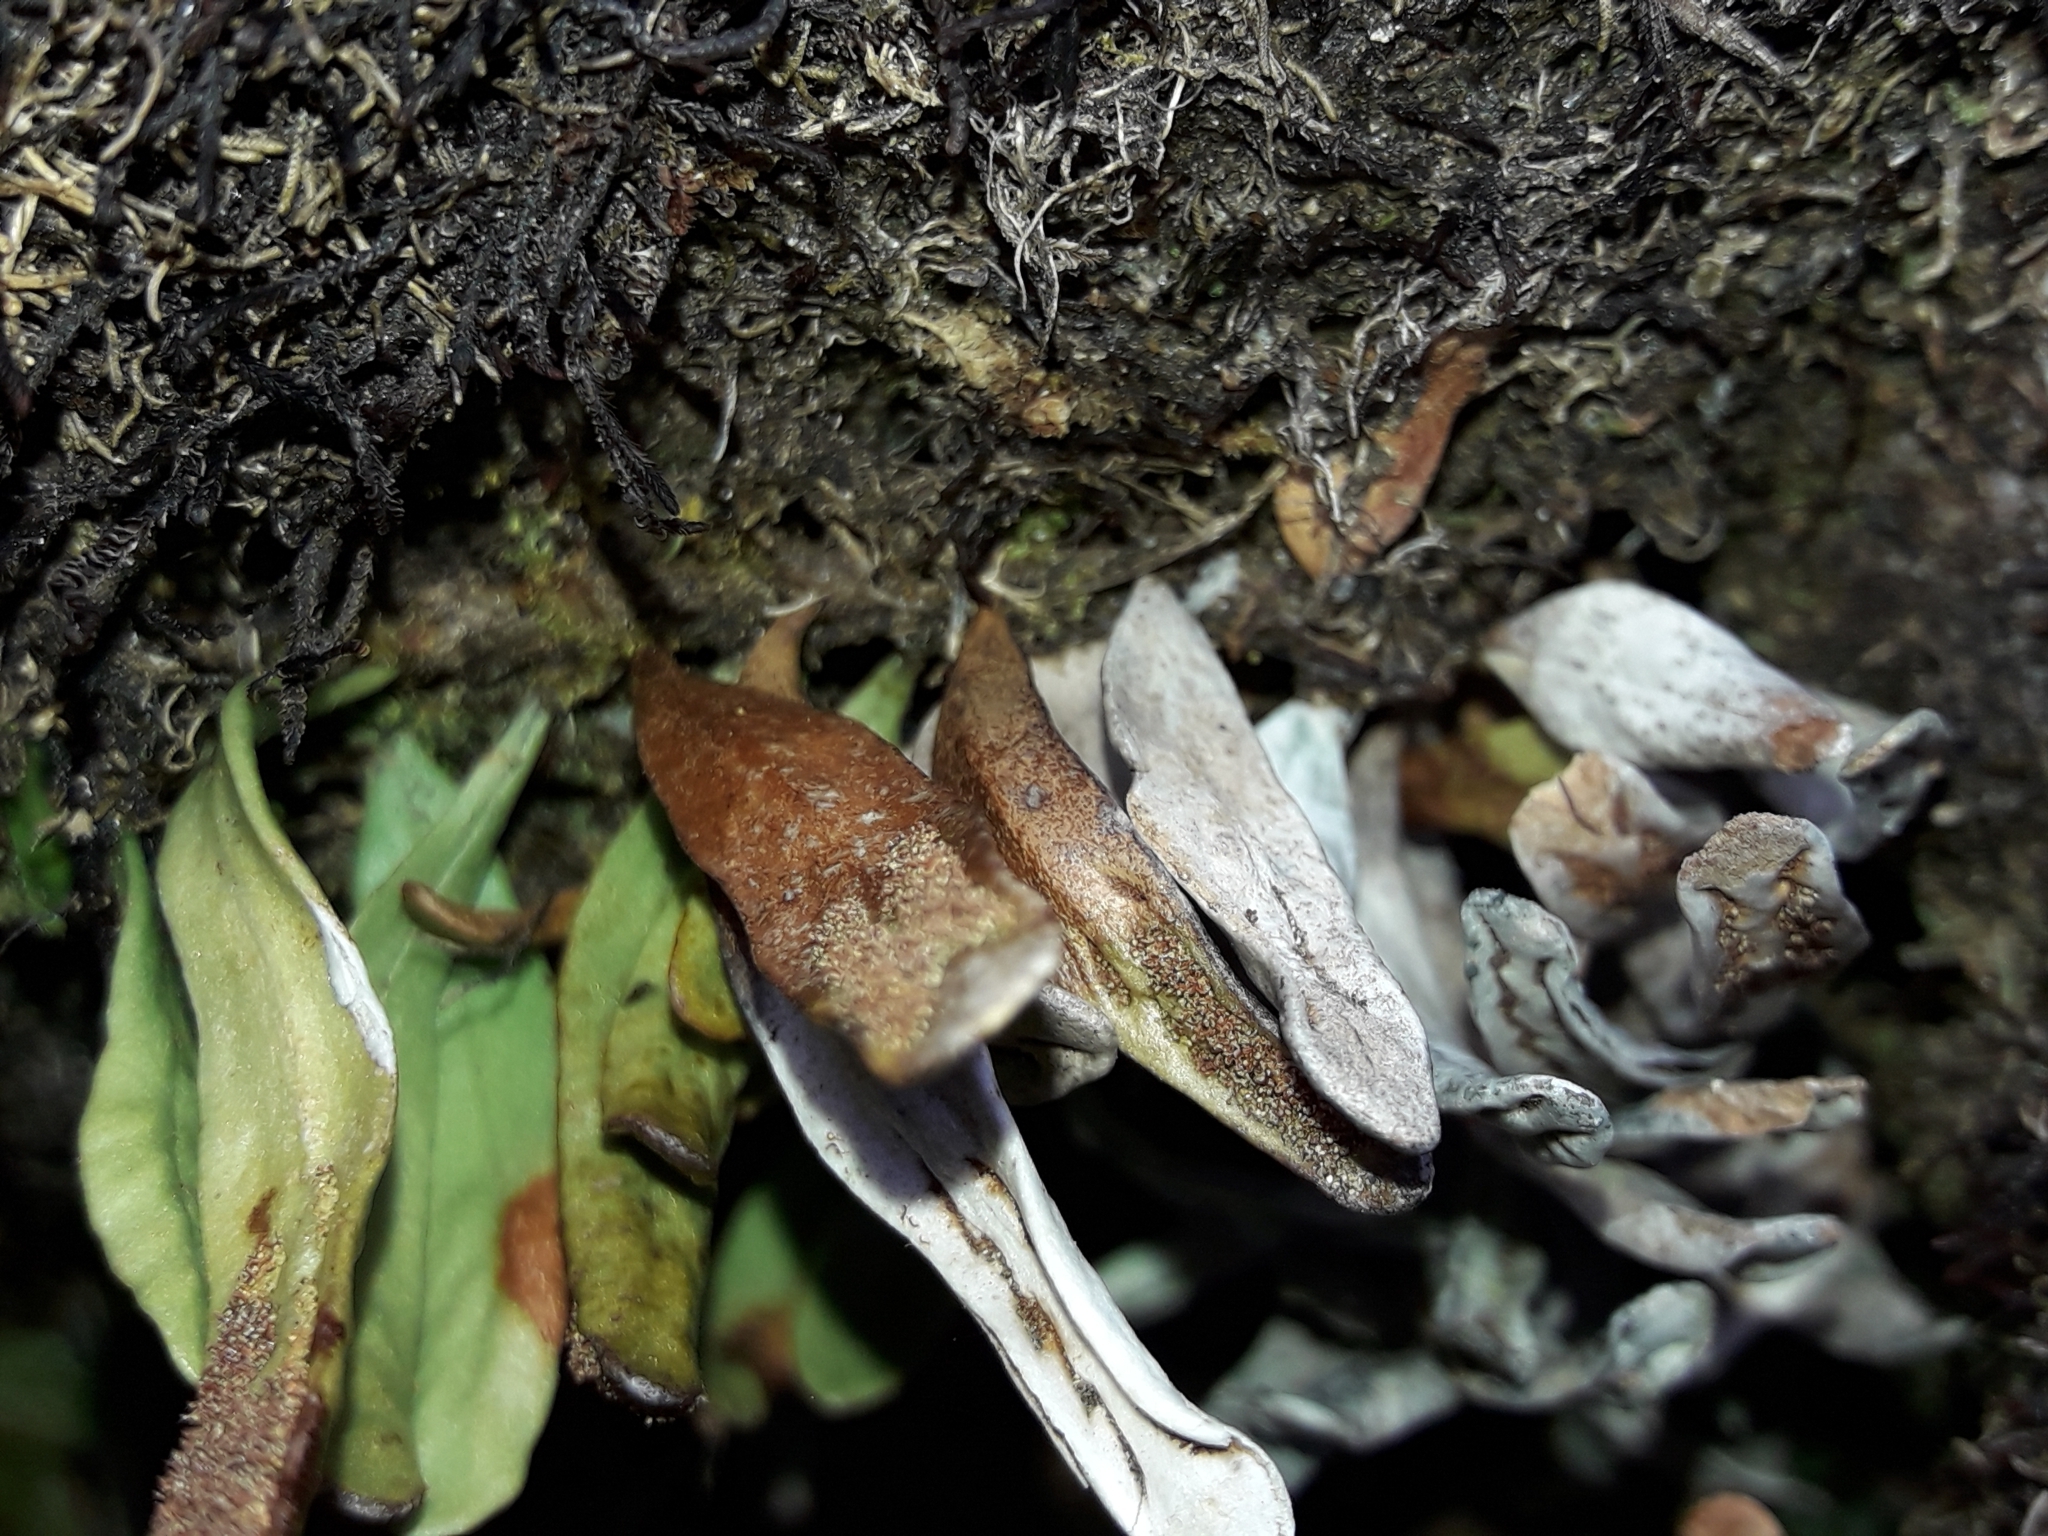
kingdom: Plantae
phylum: Tracheophyta
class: Polypodiopsida
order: Polypodiales
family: Polypodiaceae
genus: Notogrammitis
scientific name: Notogrammitis givenii
